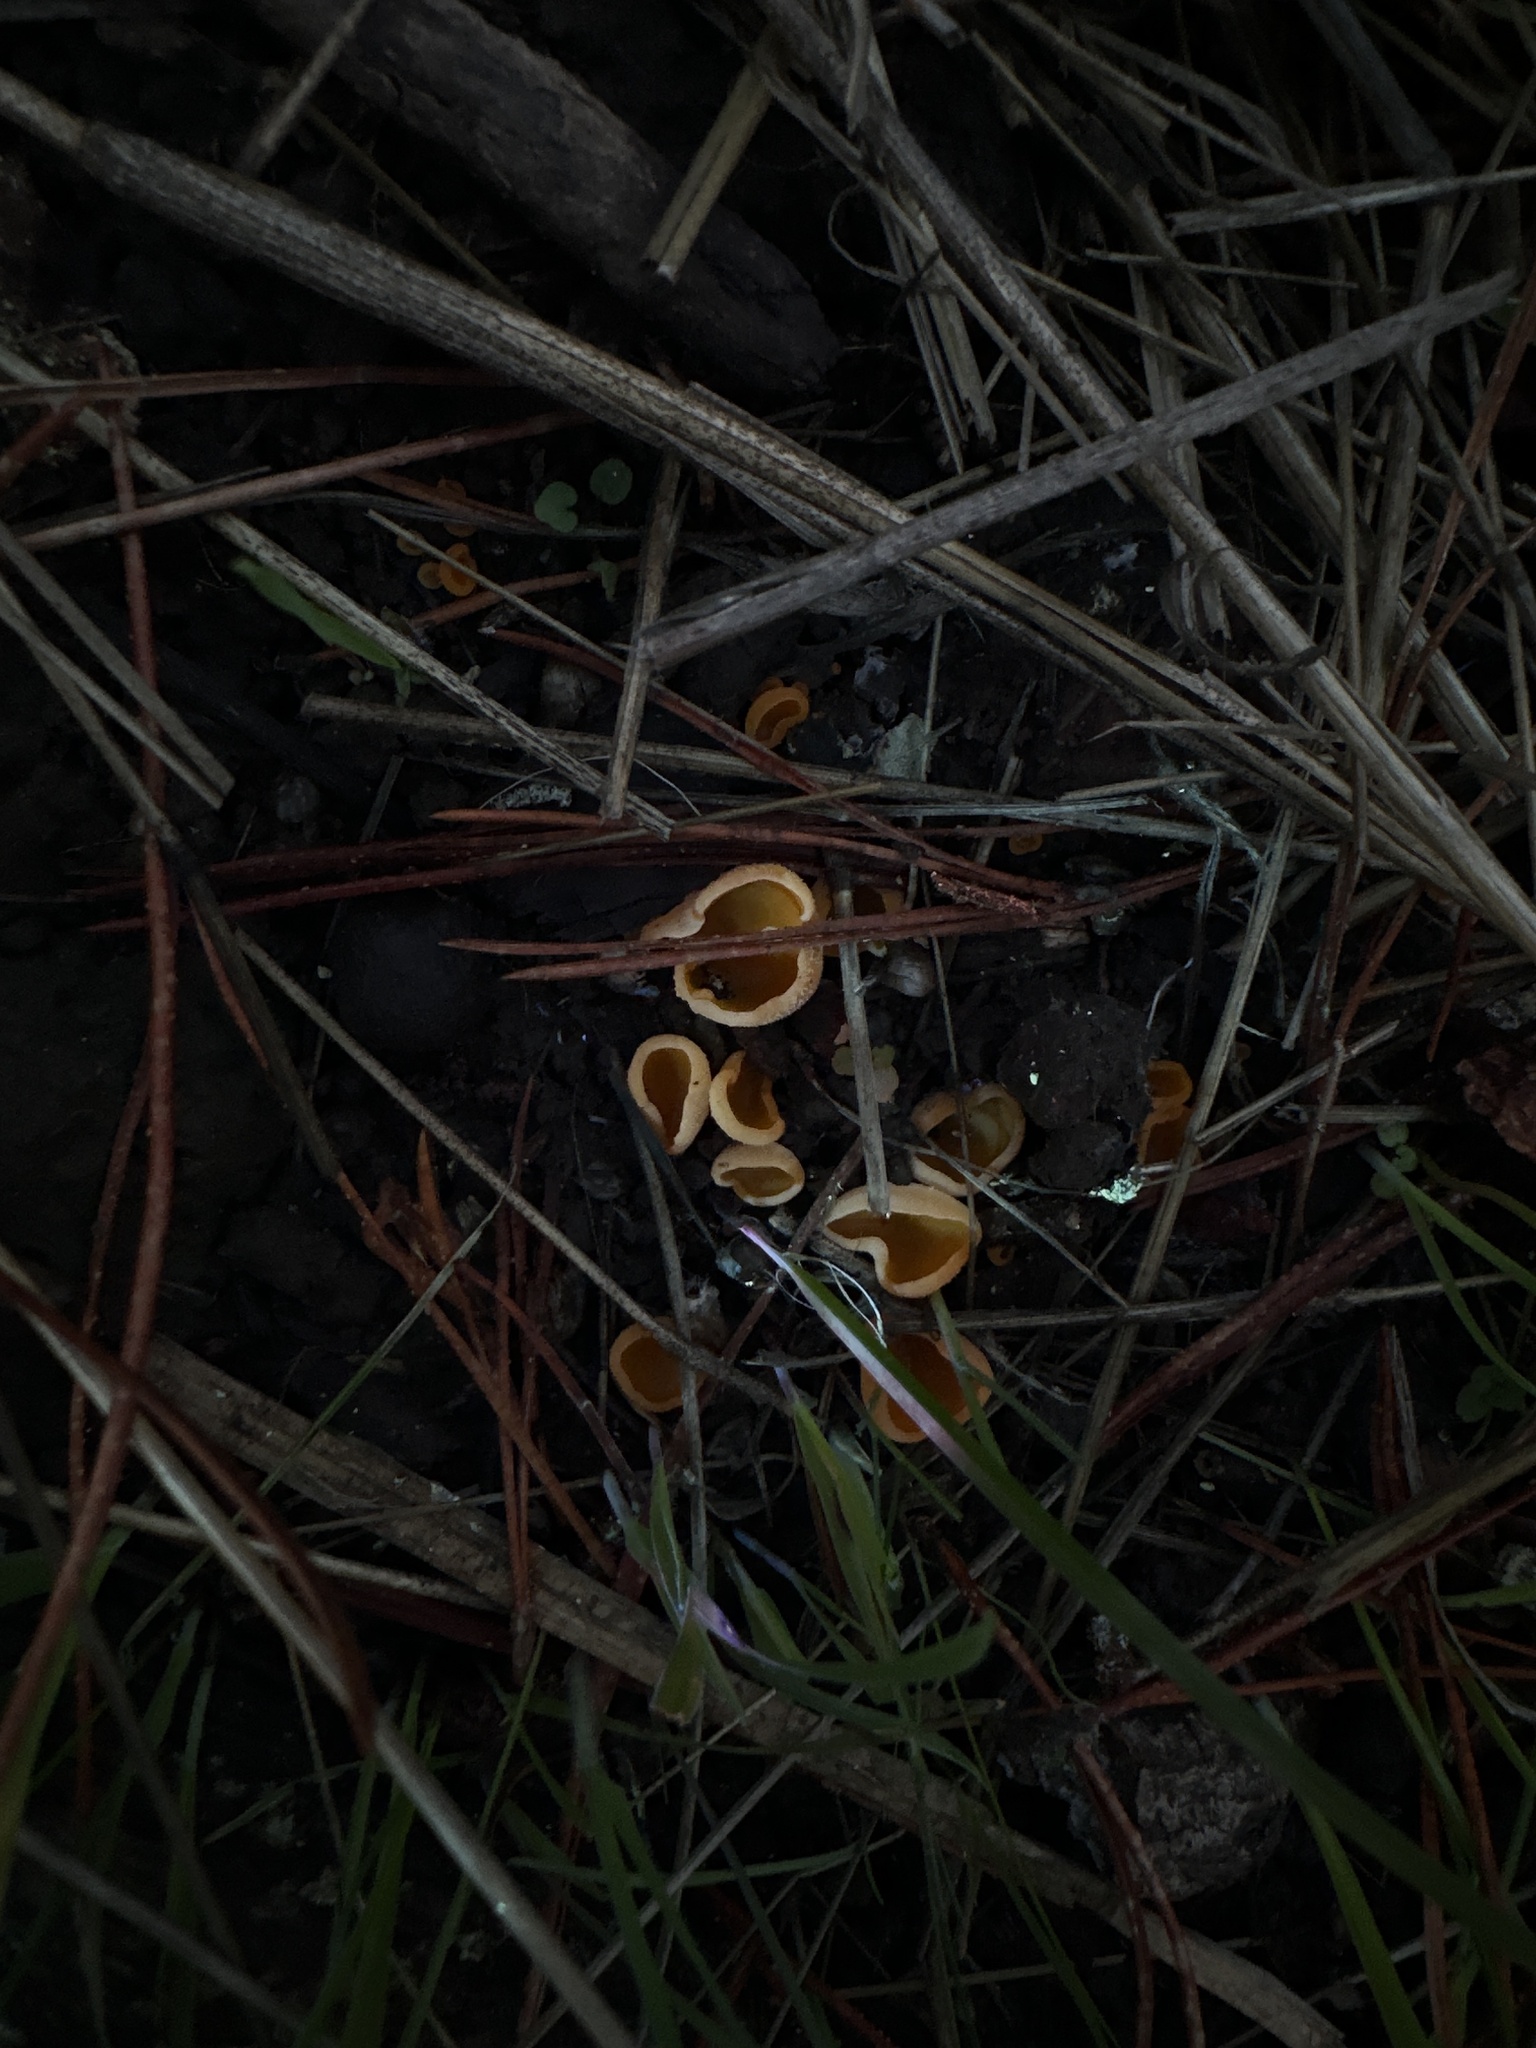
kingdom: Fungi
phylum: Ascomycota
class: Pezizomycetes
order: Pezizales
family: Pyronemataceae
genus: Aleuria
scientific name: Aleuria aurantia
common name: Orange peel fungus
